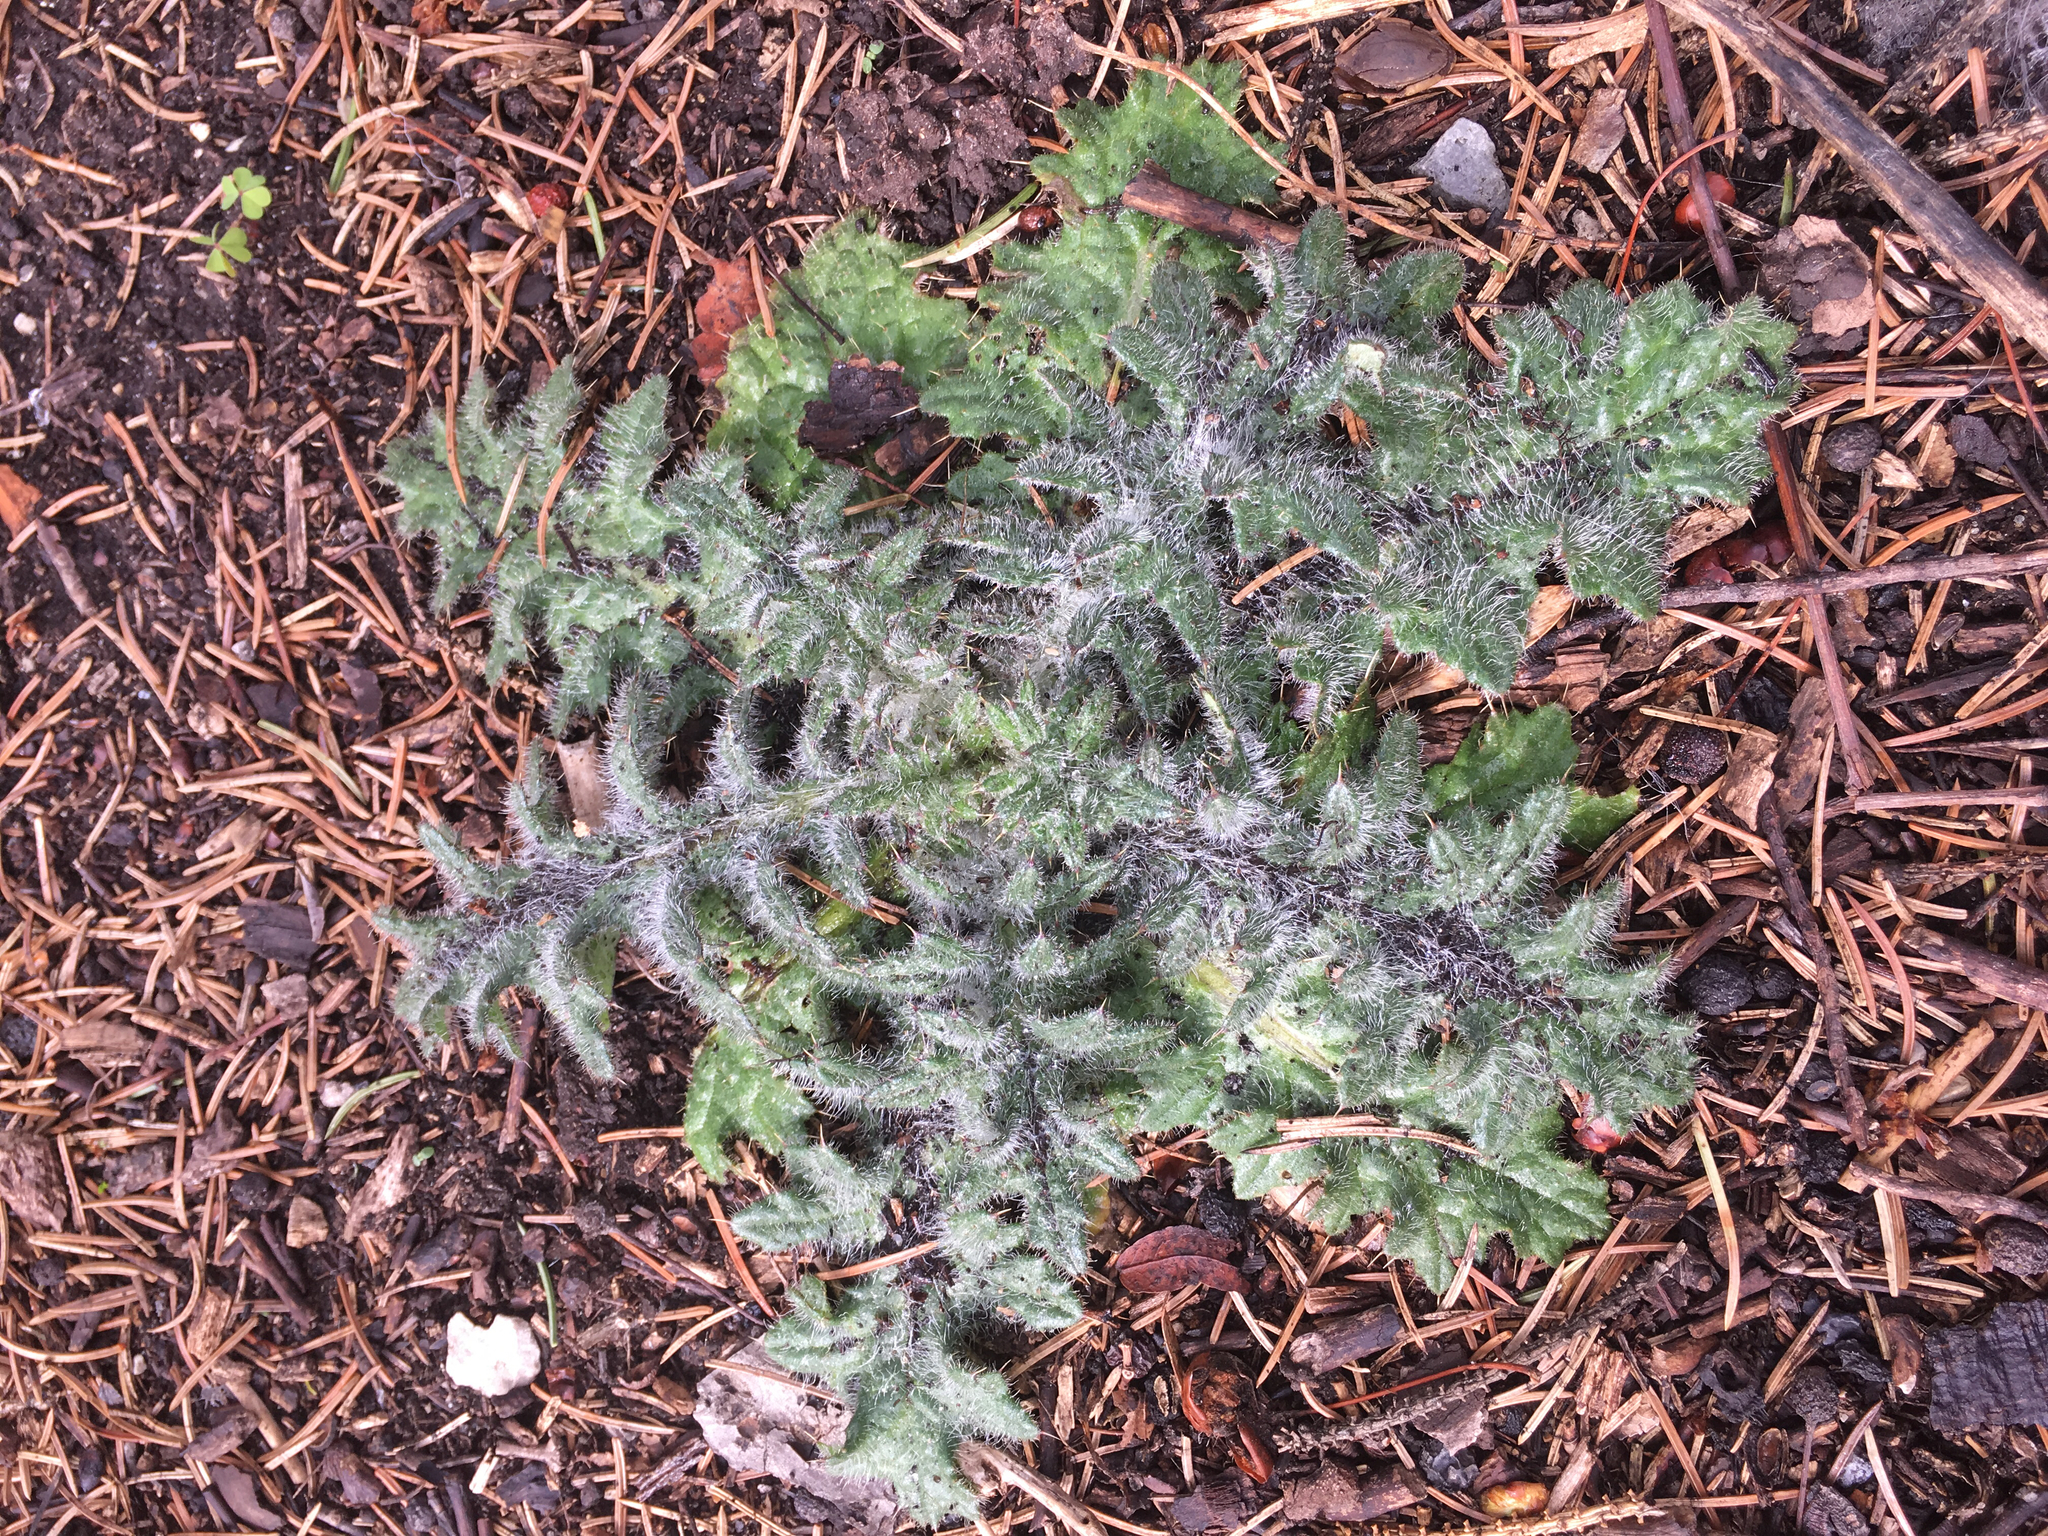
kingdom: Plantae
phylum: Tracheophyta
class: Magnoliopsida
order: Asterales
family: Asteraceae
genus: Cirsium
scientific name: Cirsium vulgare
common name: Bull thistle
